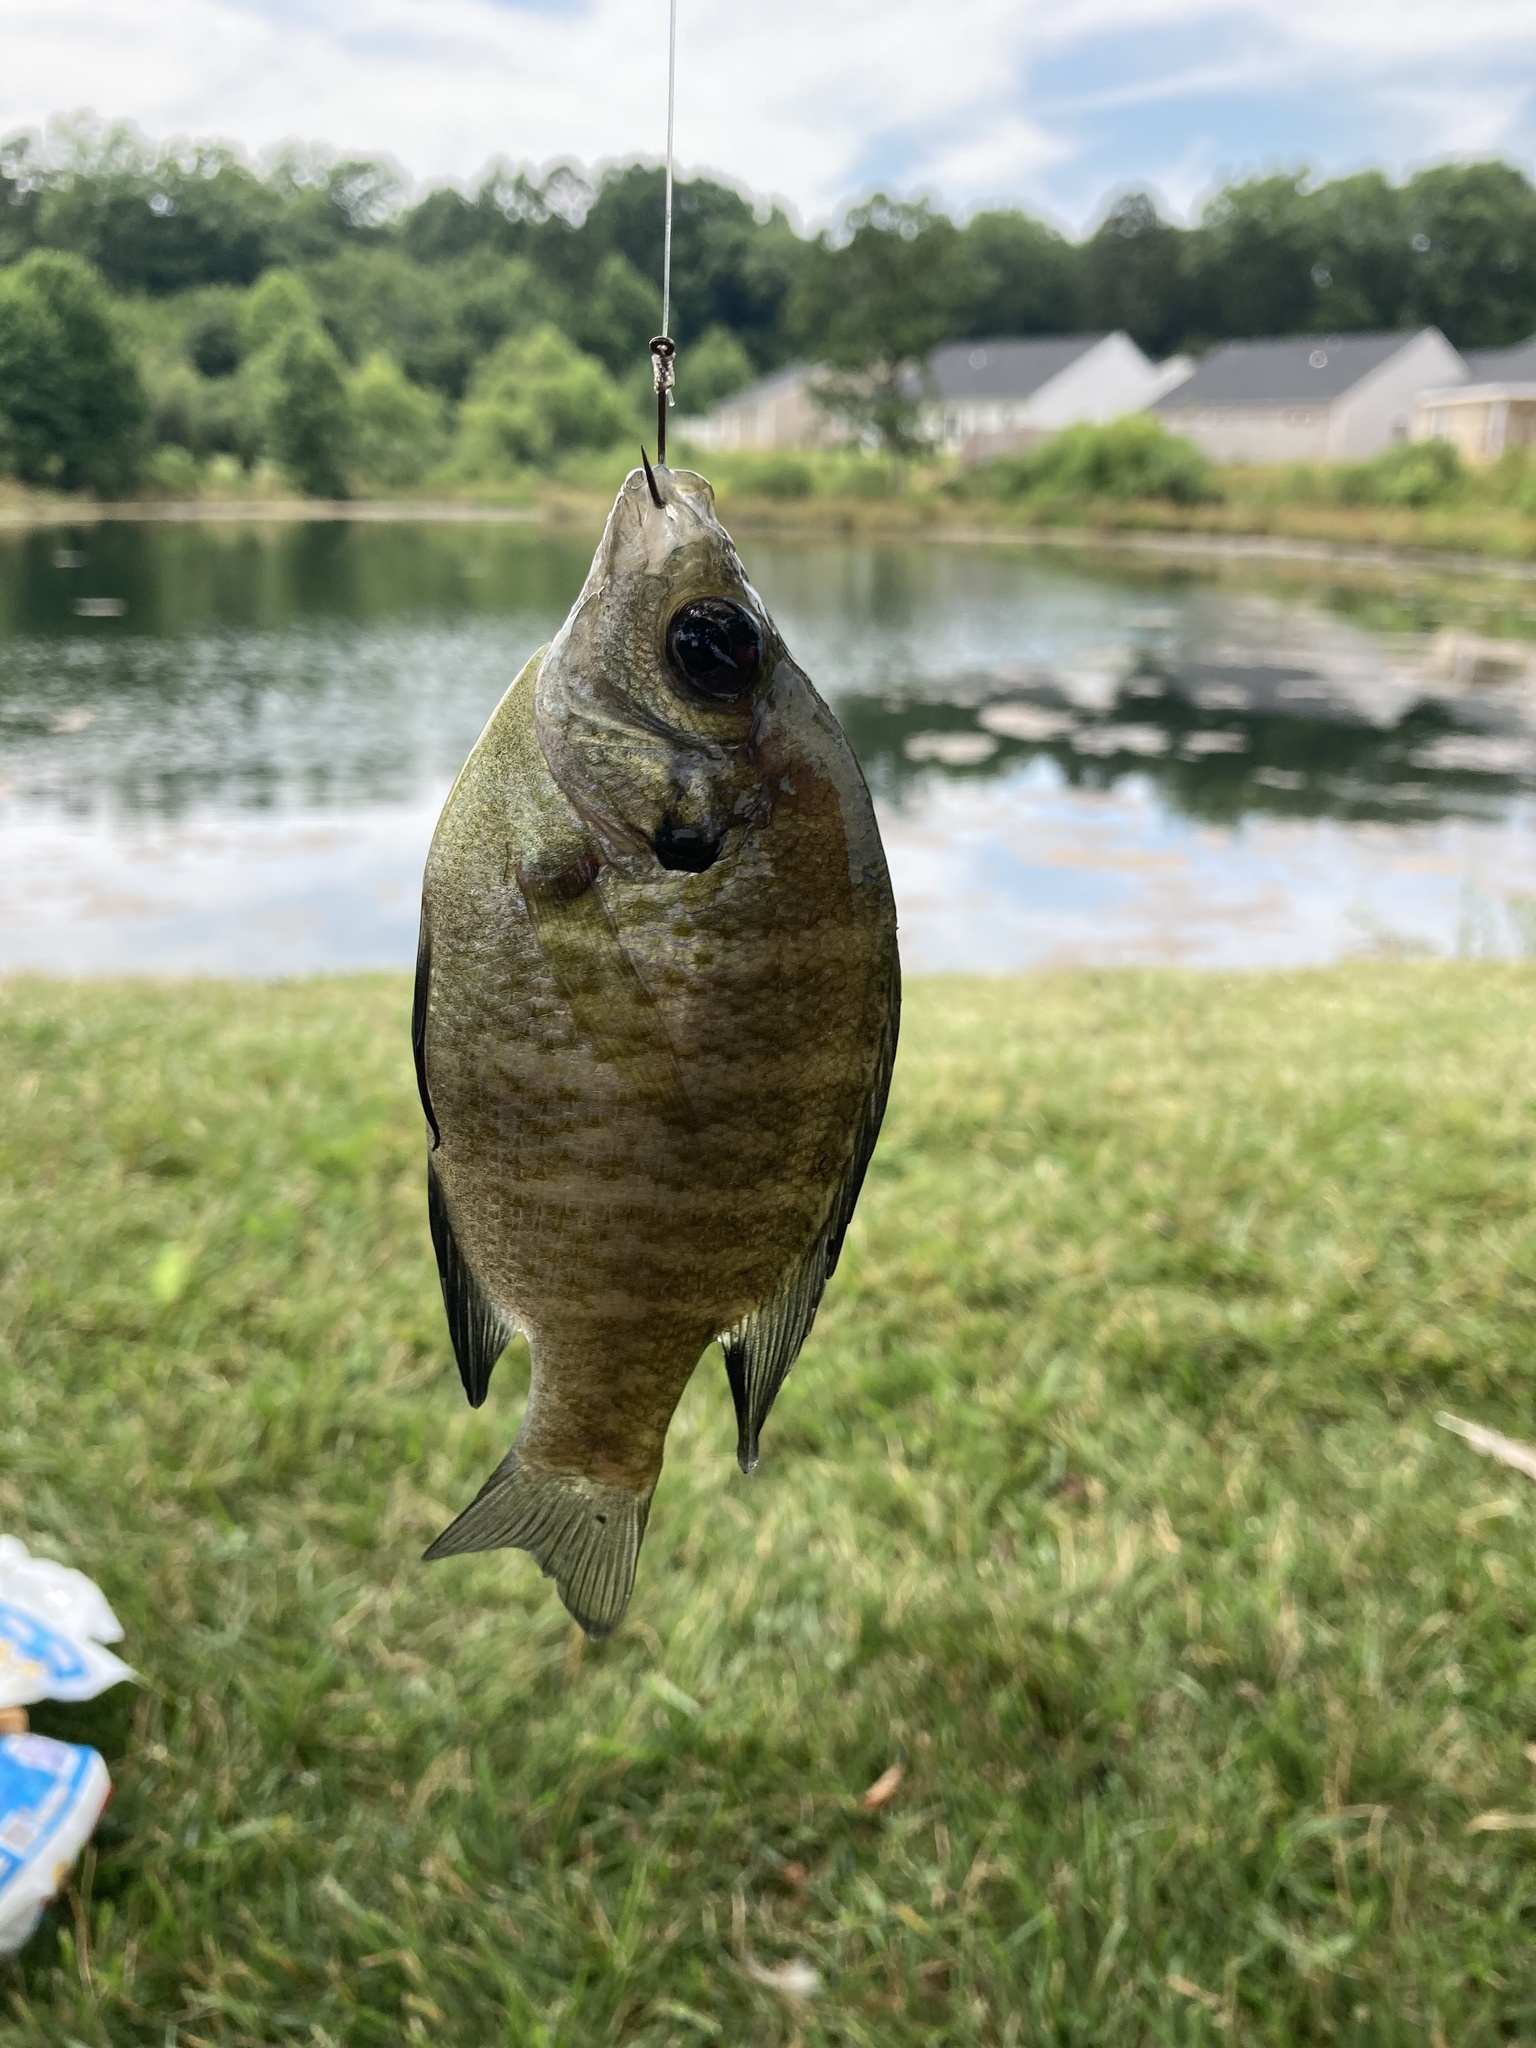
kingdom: Animalia
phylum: Chordata
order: Perciformes
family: Centrarchidae
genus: Lepomis
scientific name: Lepomis macrochirus
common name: Bluegill
